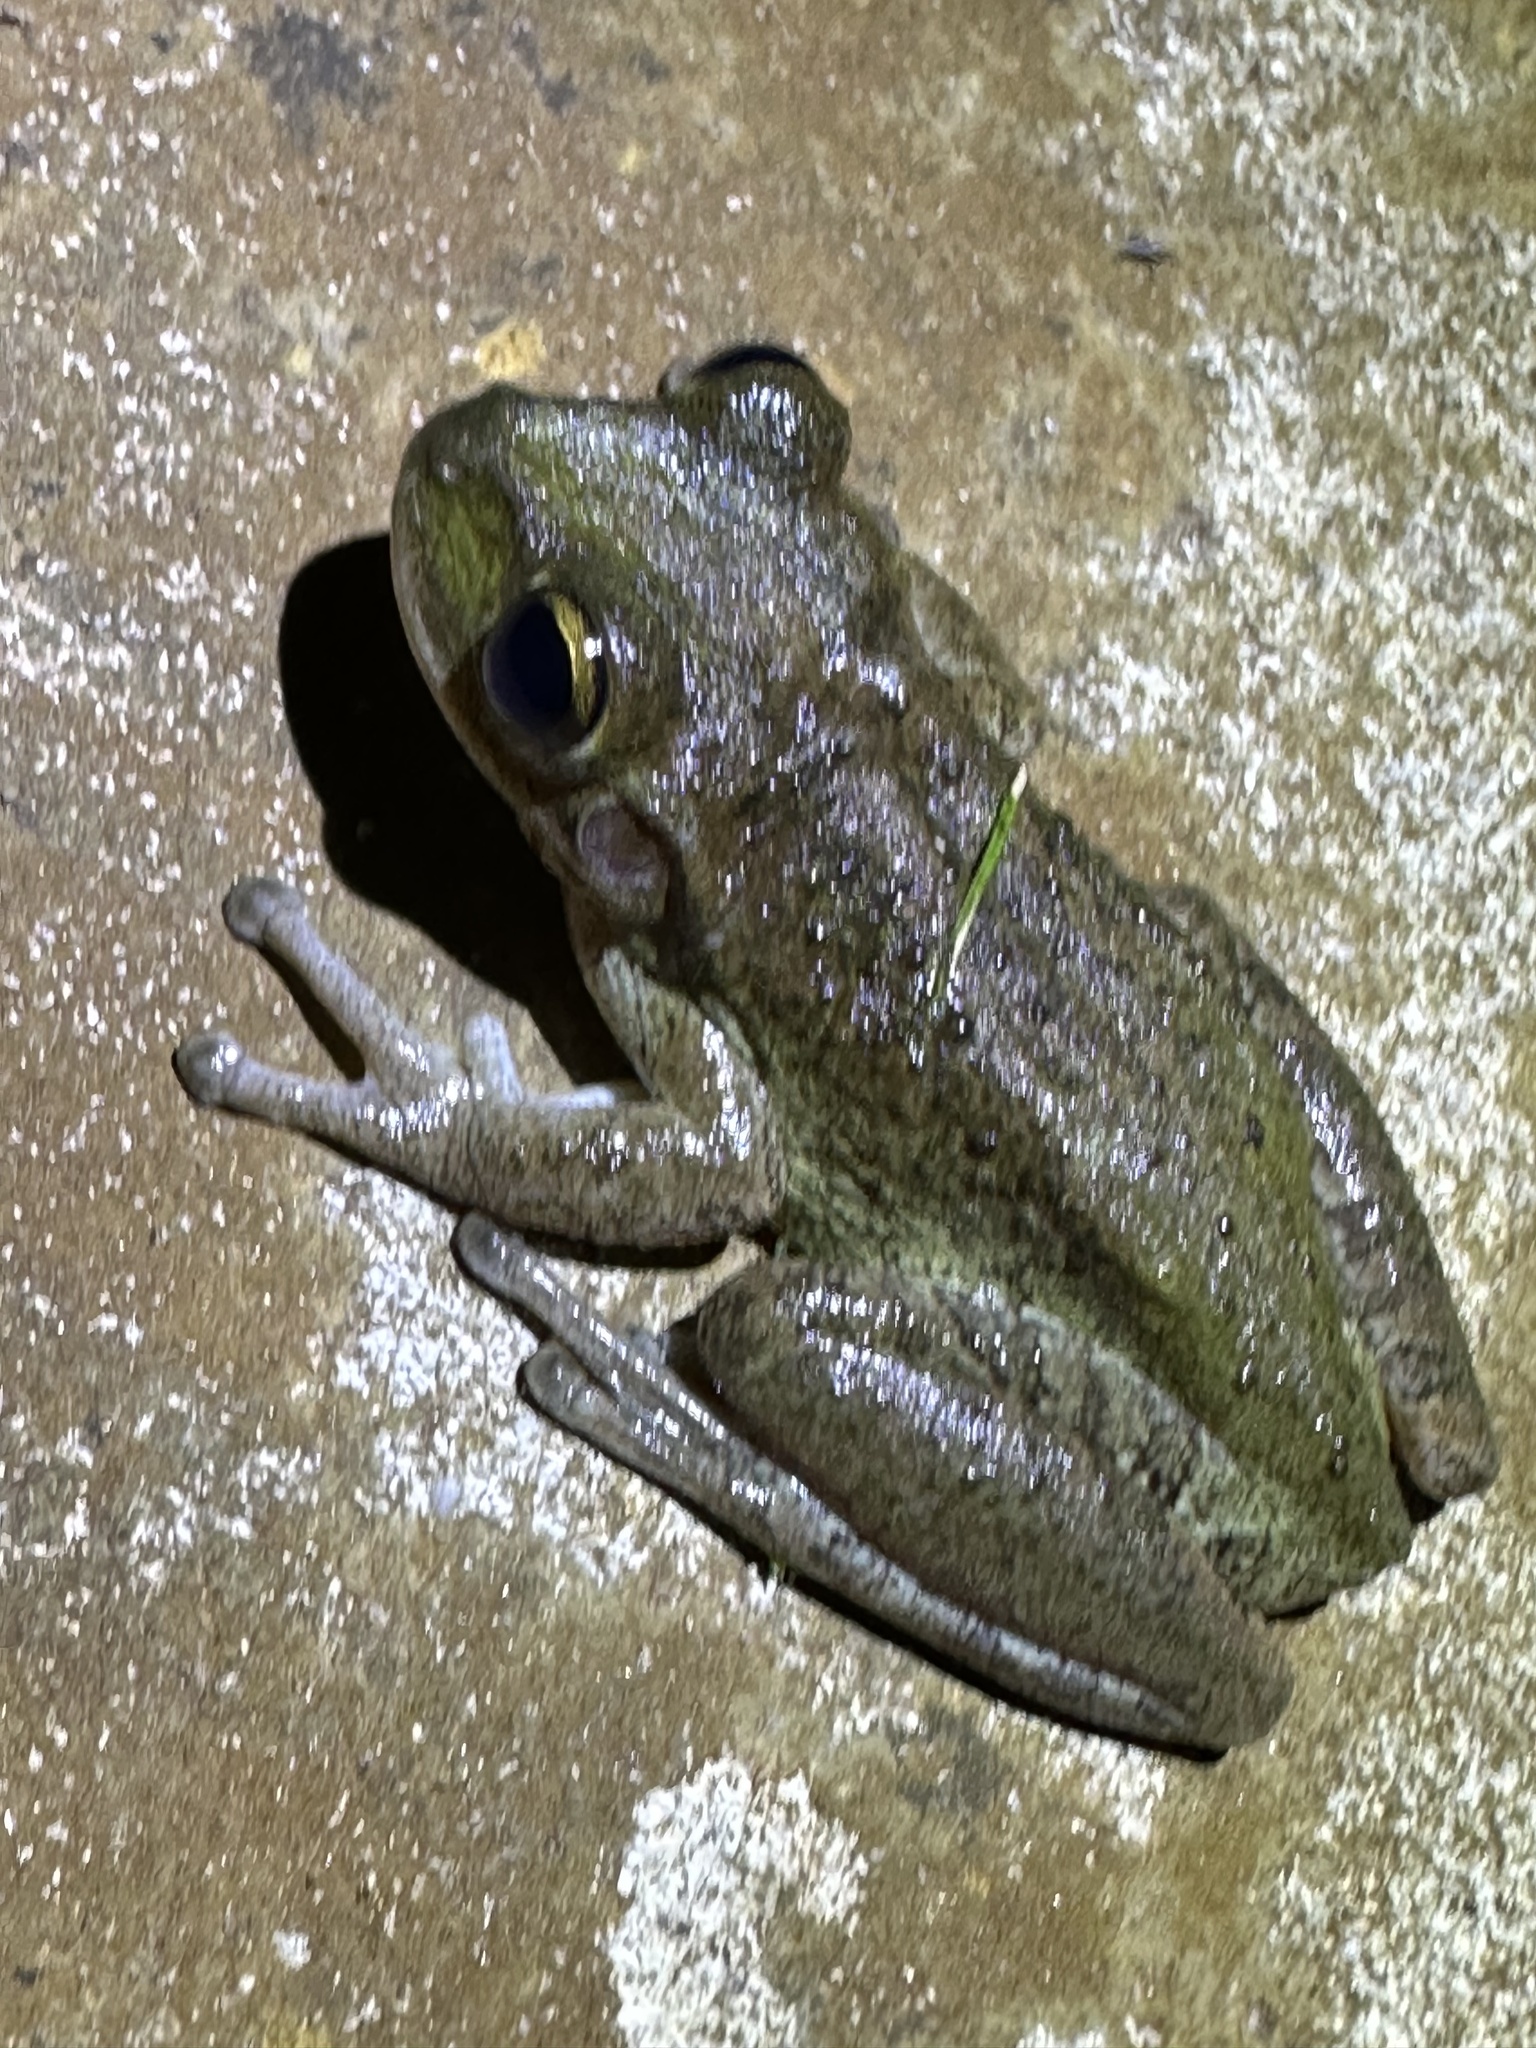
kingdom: Animalia
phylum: Chordata
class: Amphibia
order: Anura
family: Hylidae
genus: Osteopilus
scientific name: Osteopilus septentrionalis
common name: Cuban treefrog
